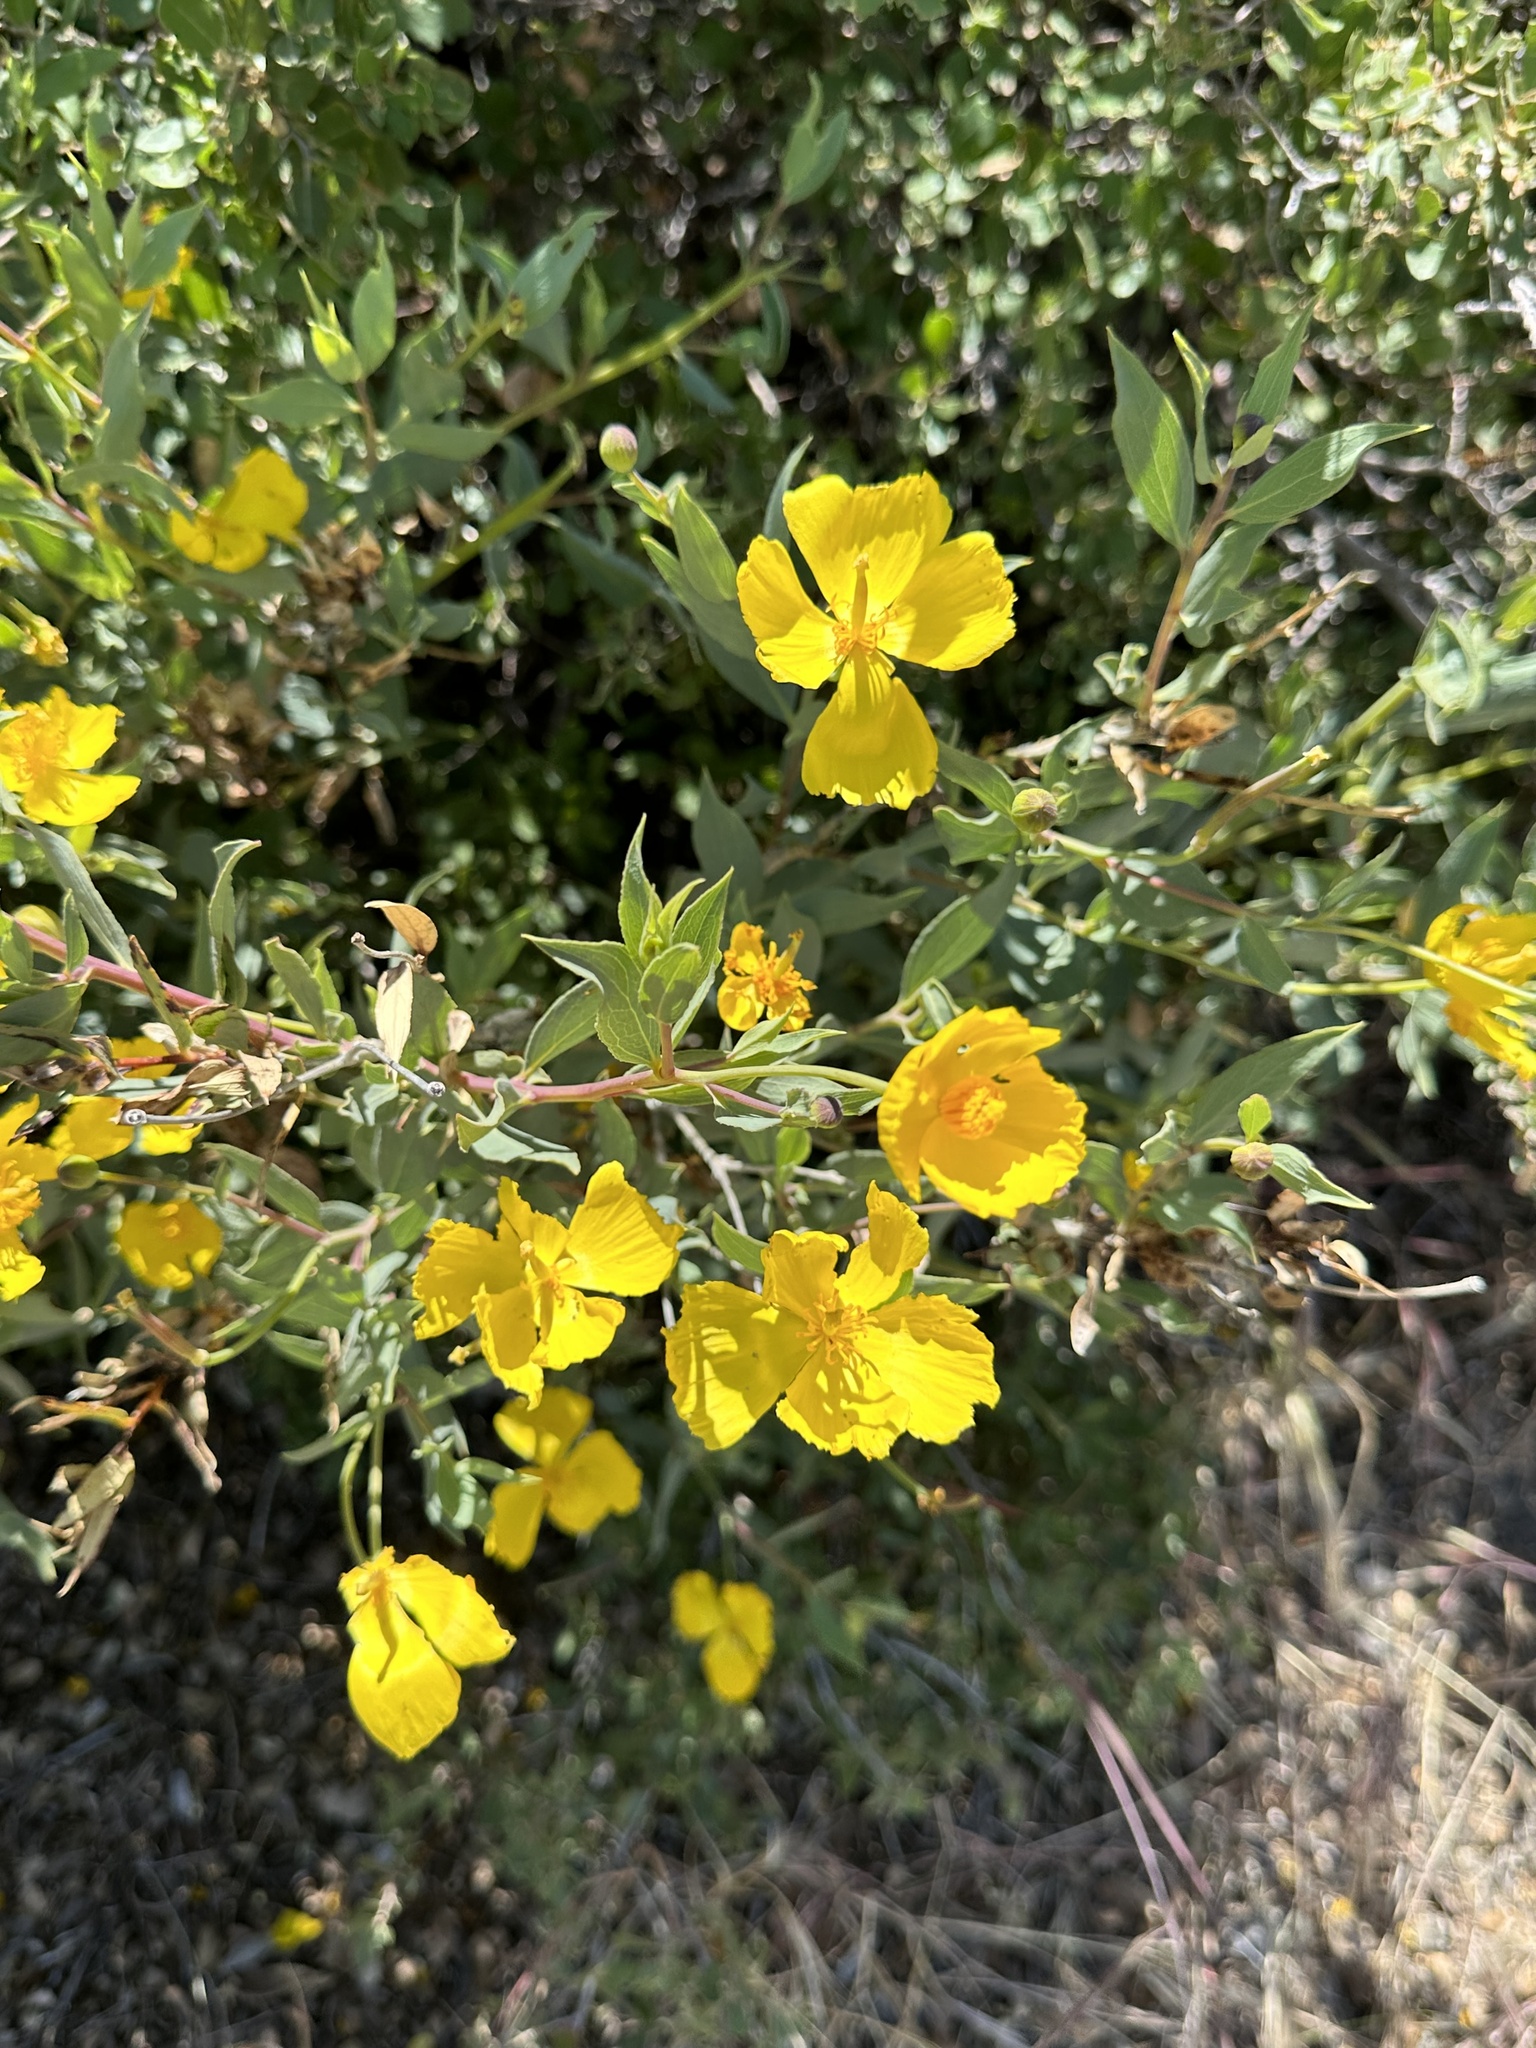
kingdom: Plantae
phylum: Tracheophyta
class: Magnoliopsida
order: Ranunculales
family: Papaveraceae
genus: Dendromecon
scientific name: Dendromecon rigida
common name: Tree poppy
